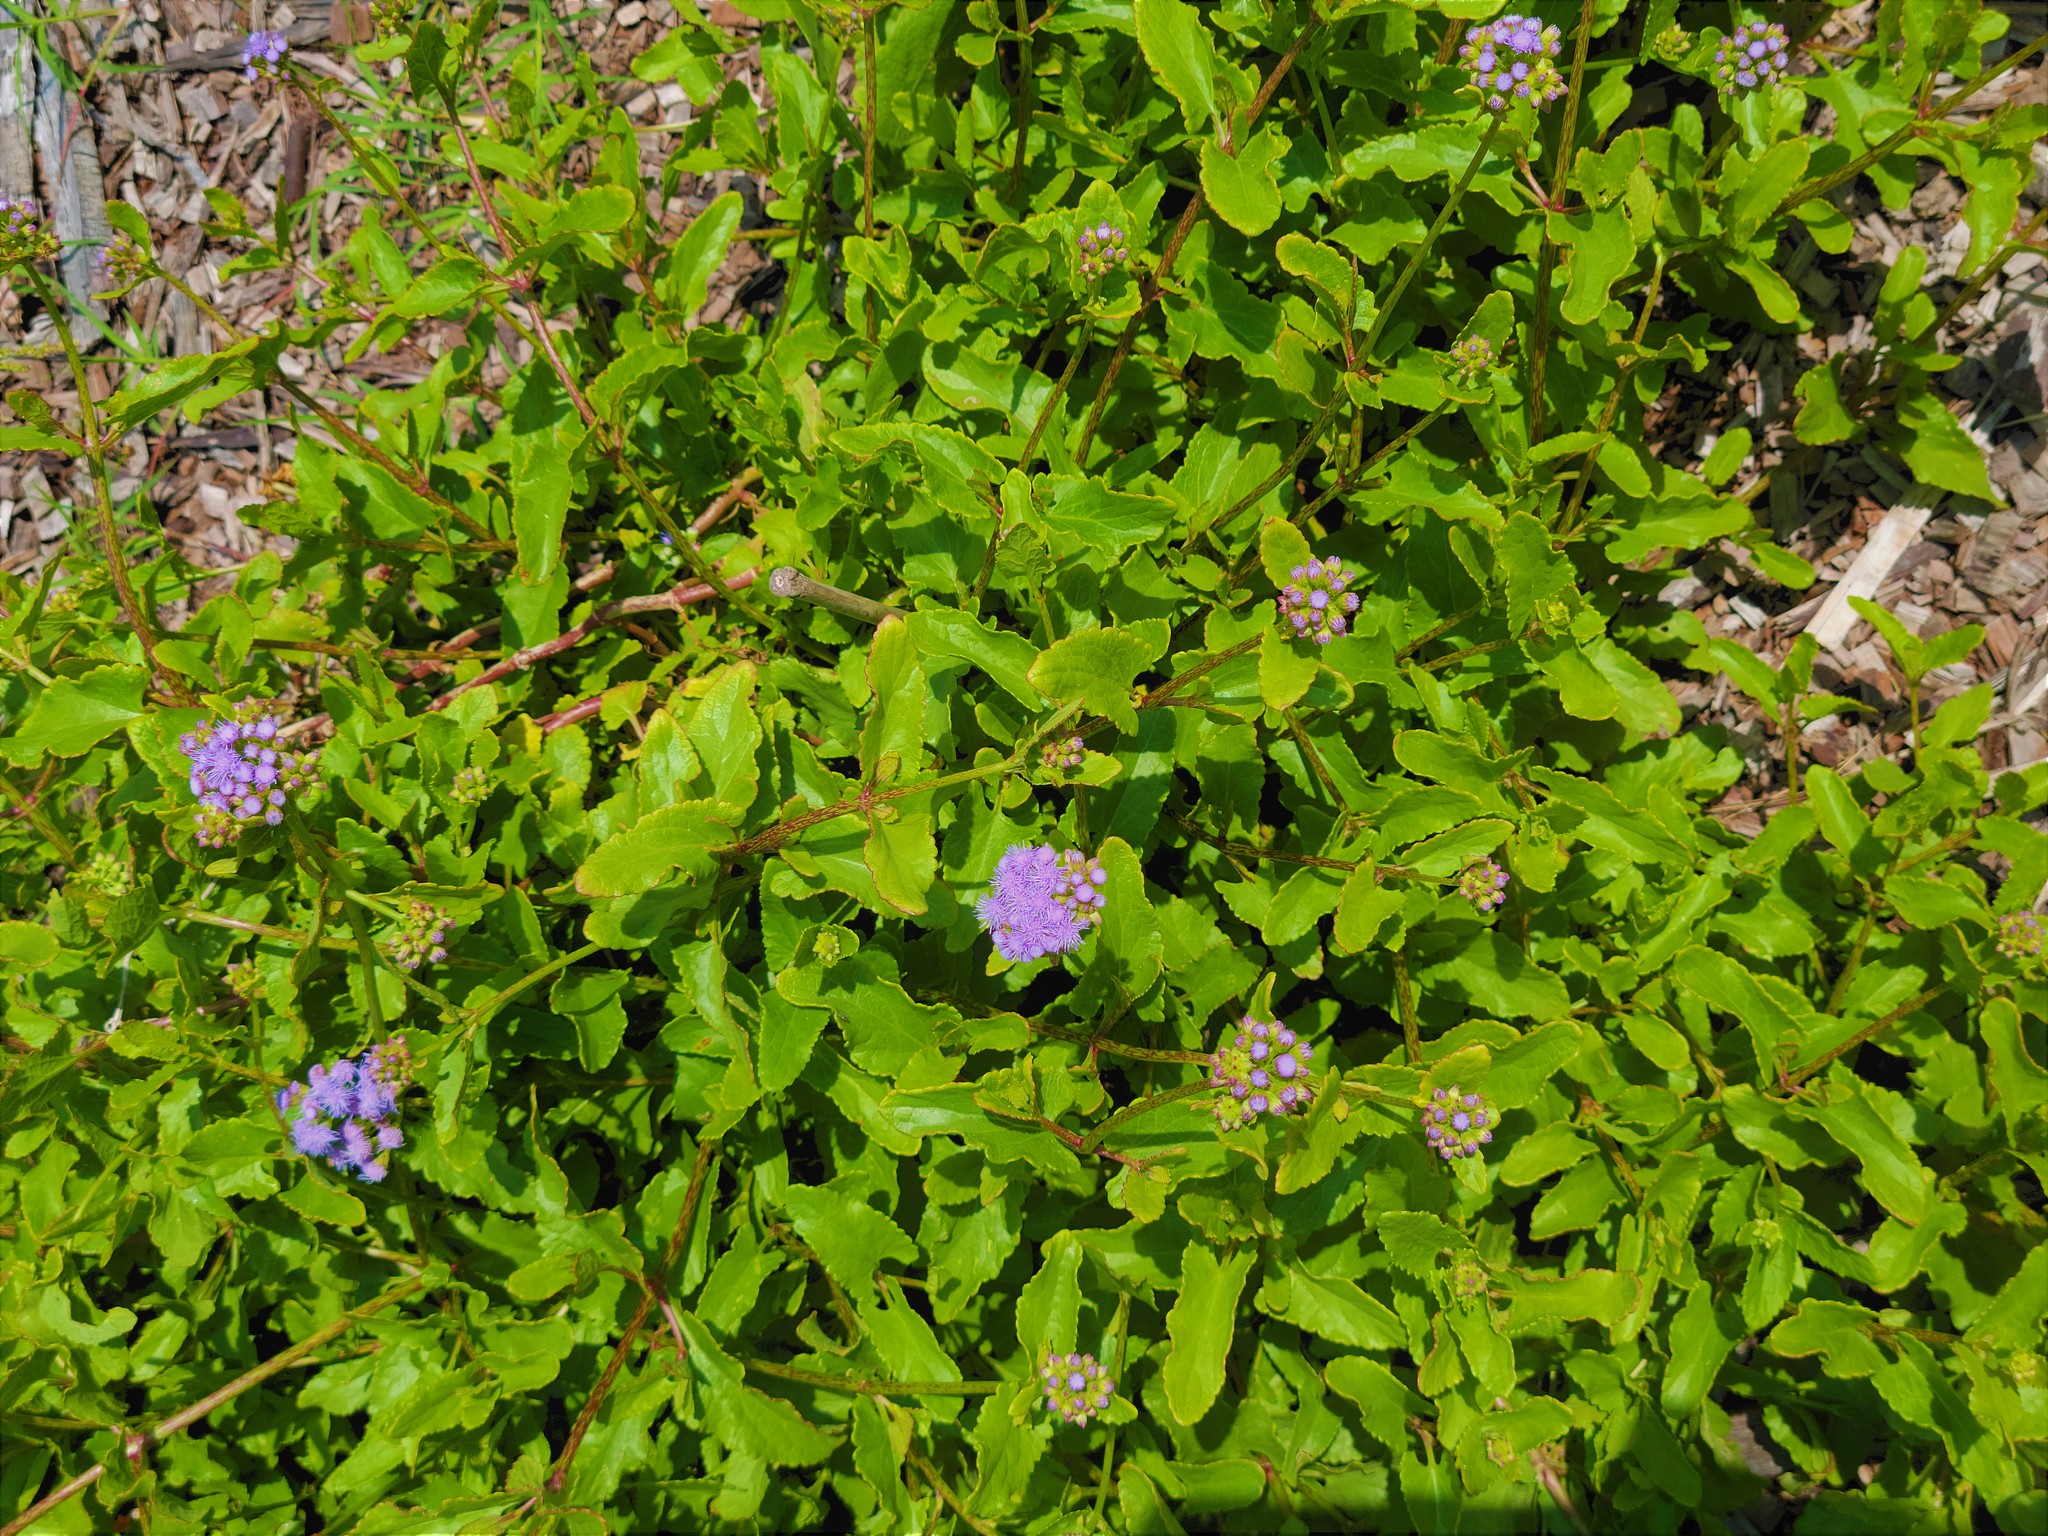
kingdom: Plantae
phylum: Tracheophyta
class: Magnoliopsida
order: Asterales
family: Asteraceae
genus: Conoclinium
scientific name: Conoclinium betonicifolium
